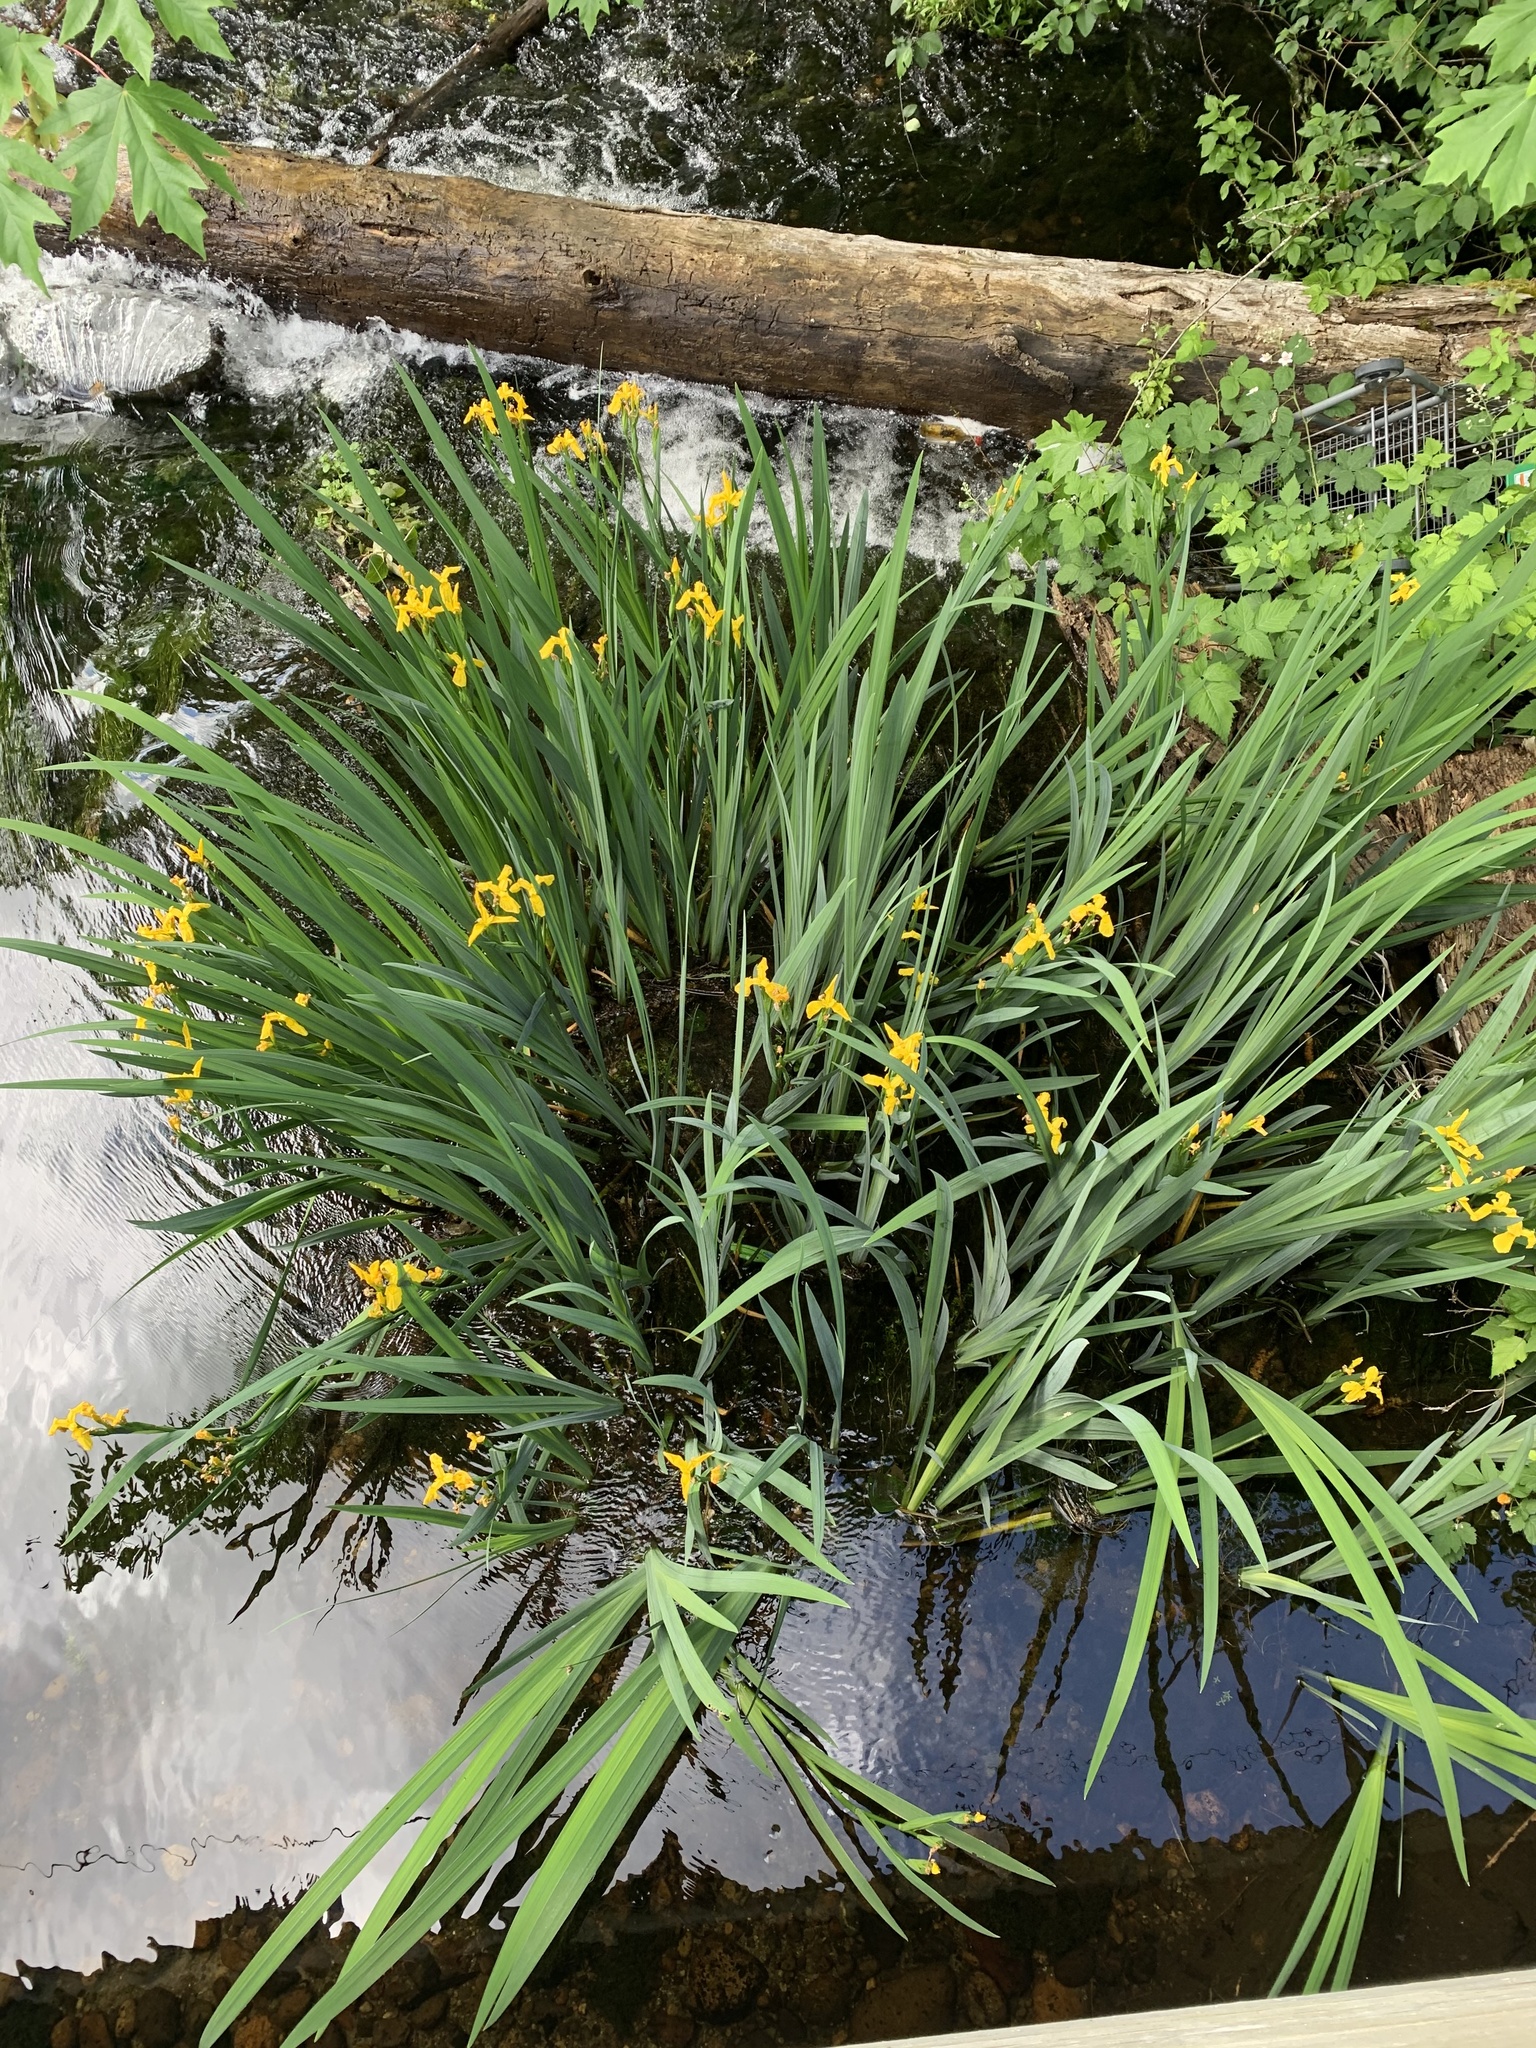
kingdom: Plantae
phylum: Tracheophyta
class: Liliopsida
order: Asparagales
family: Iridaceae
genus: Iris
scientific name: Iris pseudacorus
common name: Yellow flag
